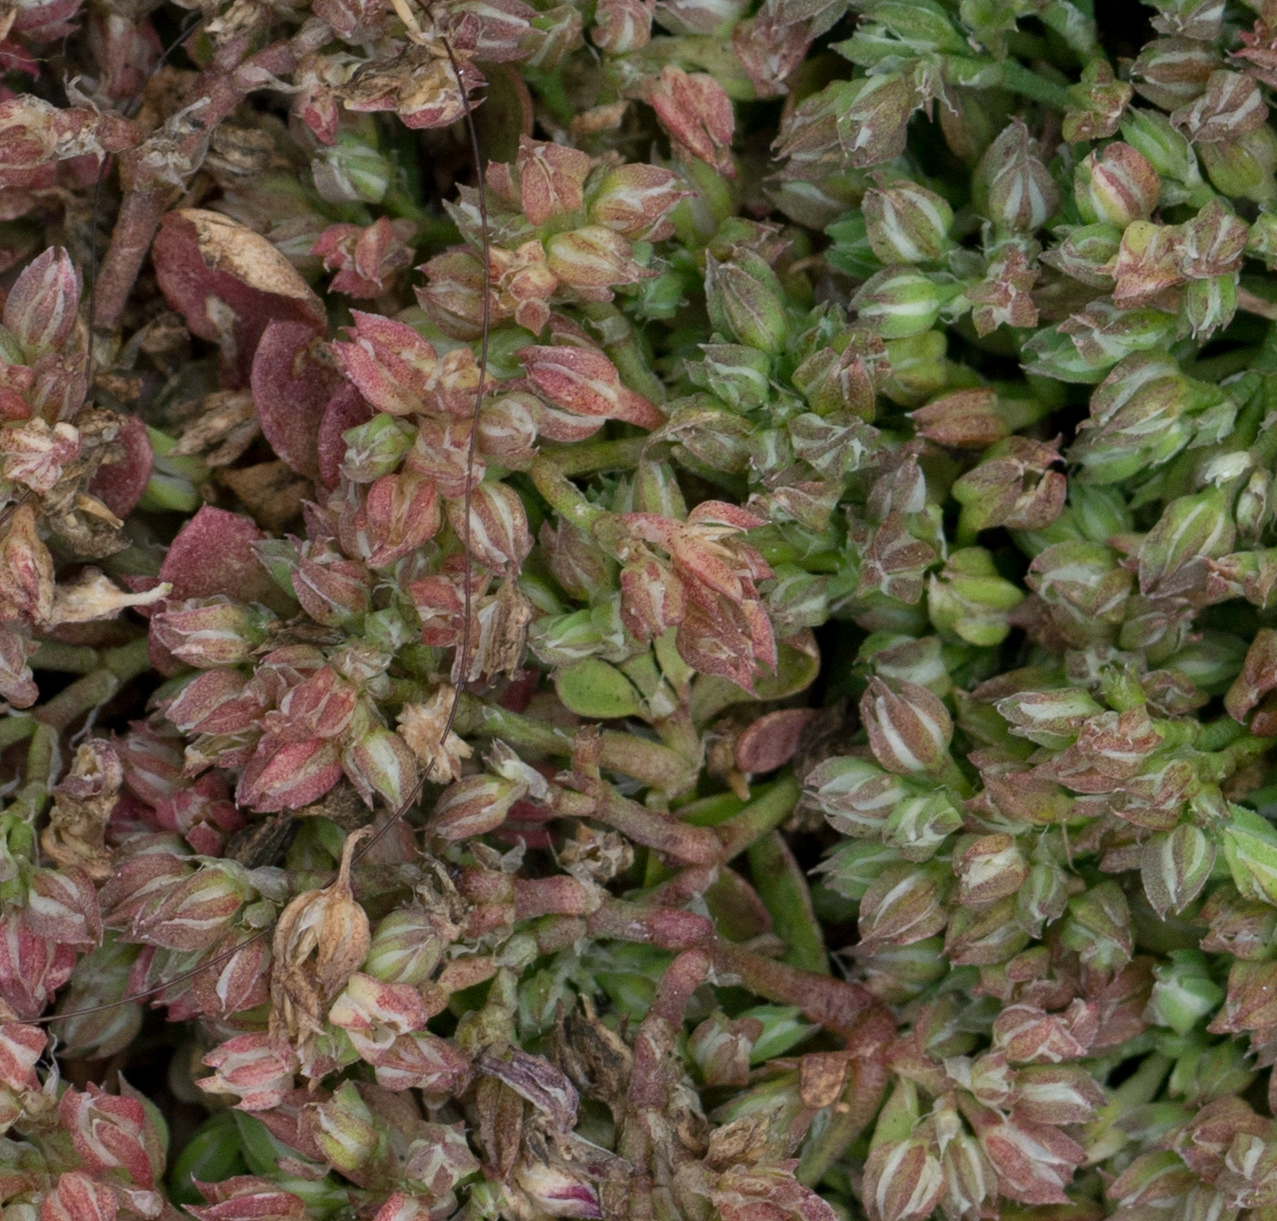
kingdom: Plantae
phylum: Tracheophyta
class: Magnoliopsida
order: Caryophyllales
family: Caryophyllaceae
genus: Polycarpon
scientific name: Polycarpon tetraphyllum
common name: Four-leaved all-seed
